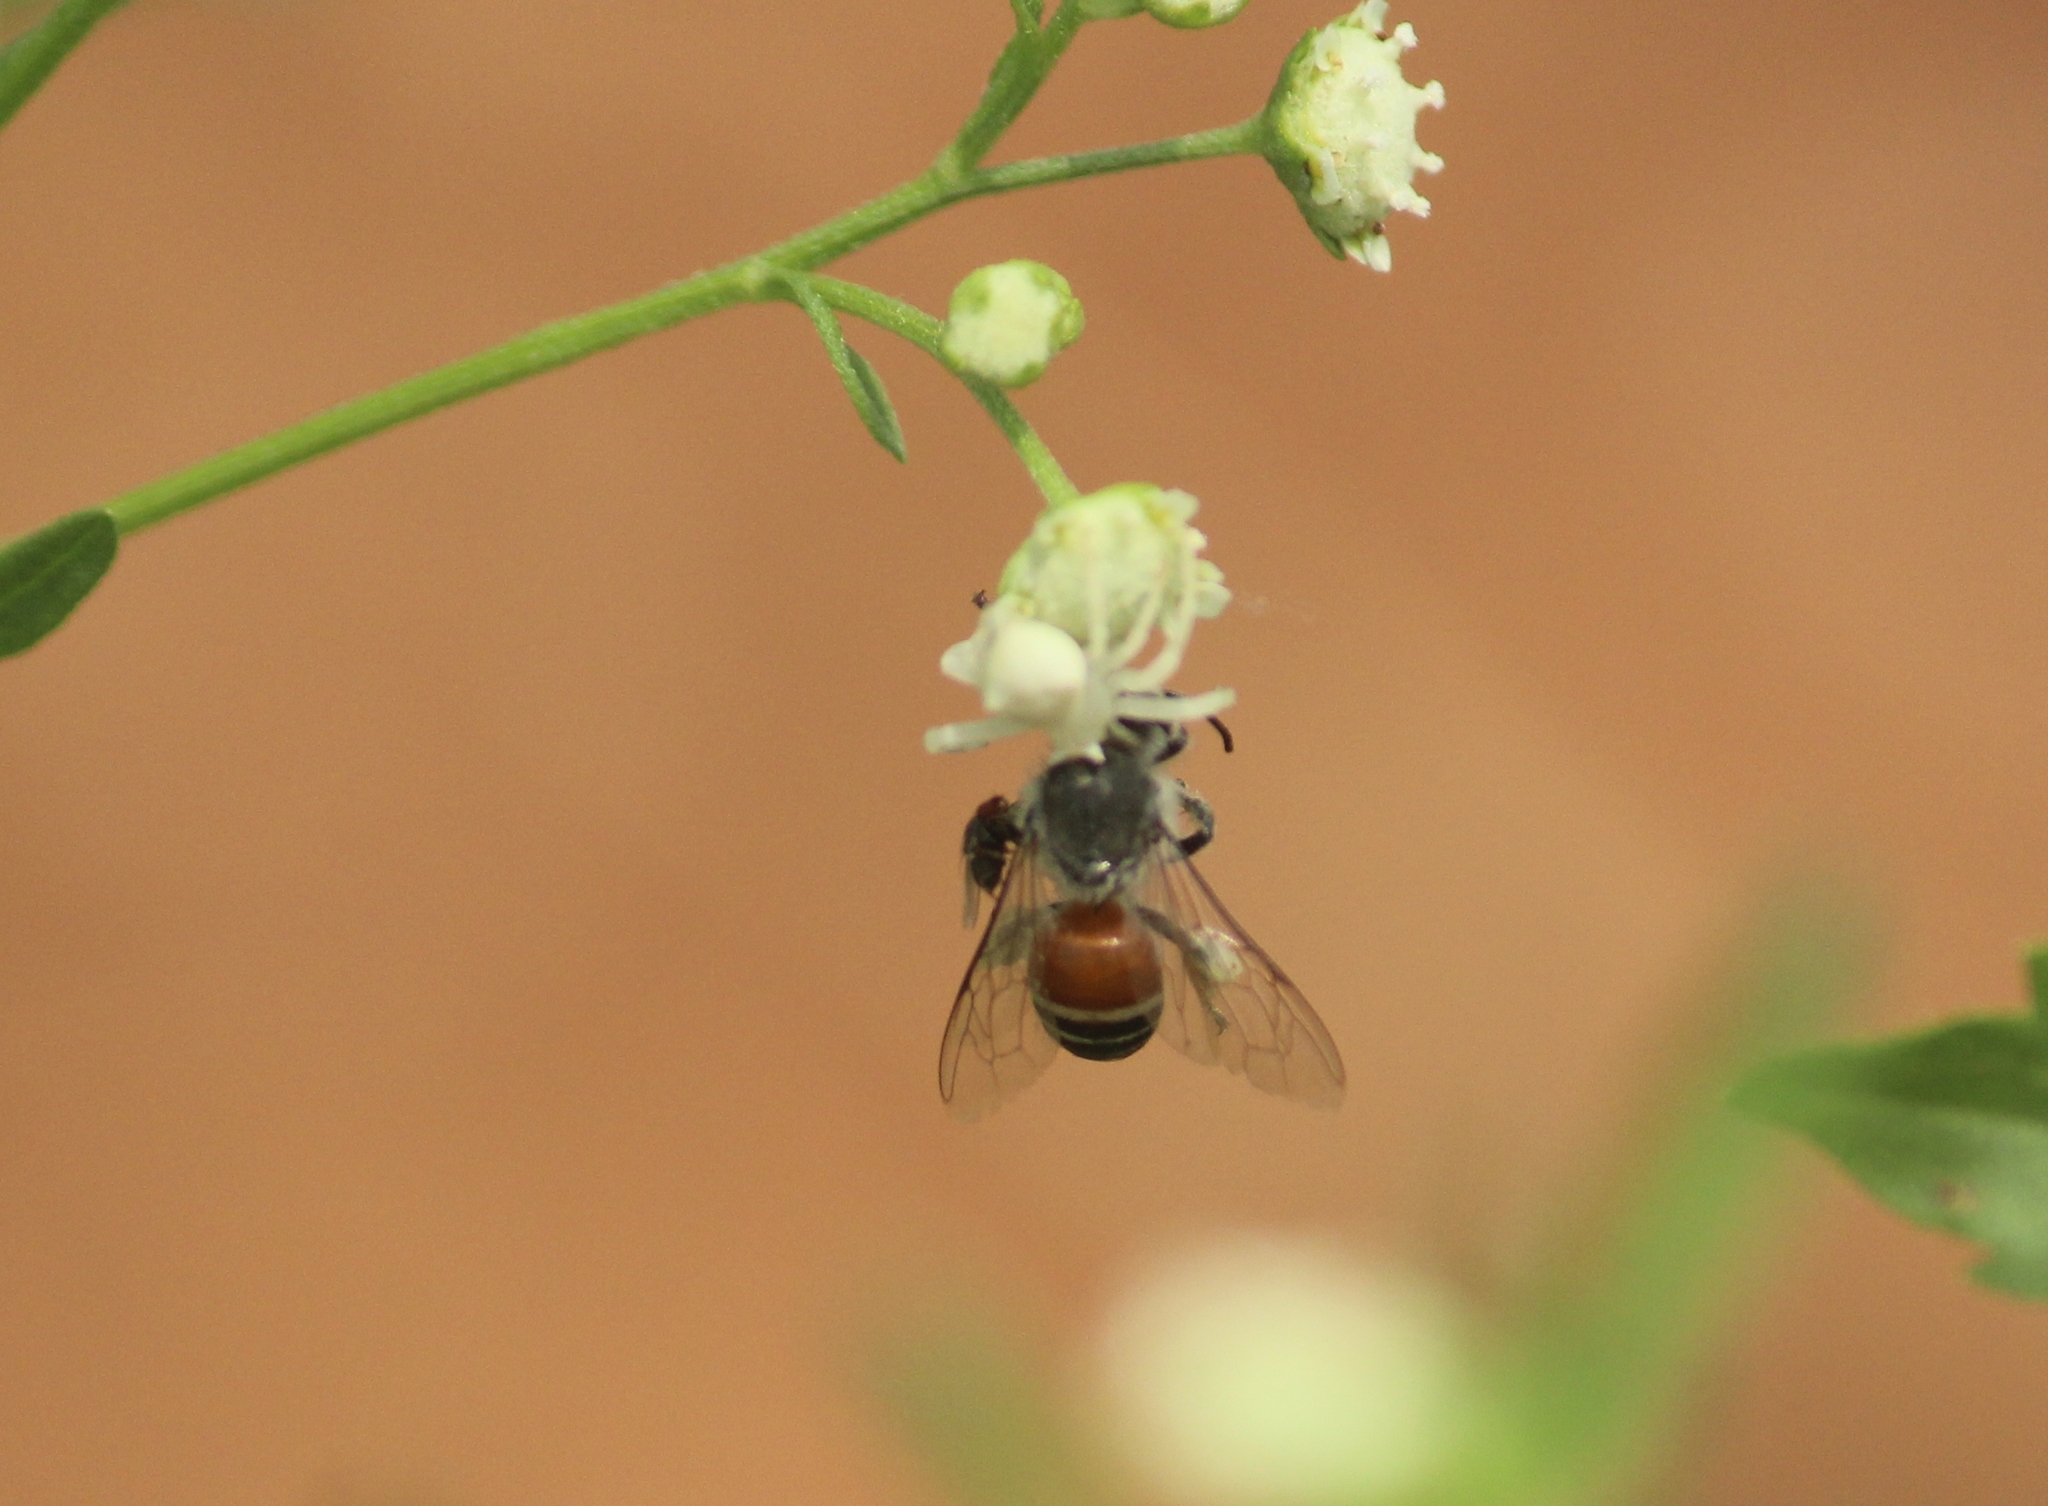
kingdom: Animalia
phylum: Arthropoda
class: Insecta
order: Hymenoptera
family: Apidae
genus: Apis
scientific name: Apis florea
